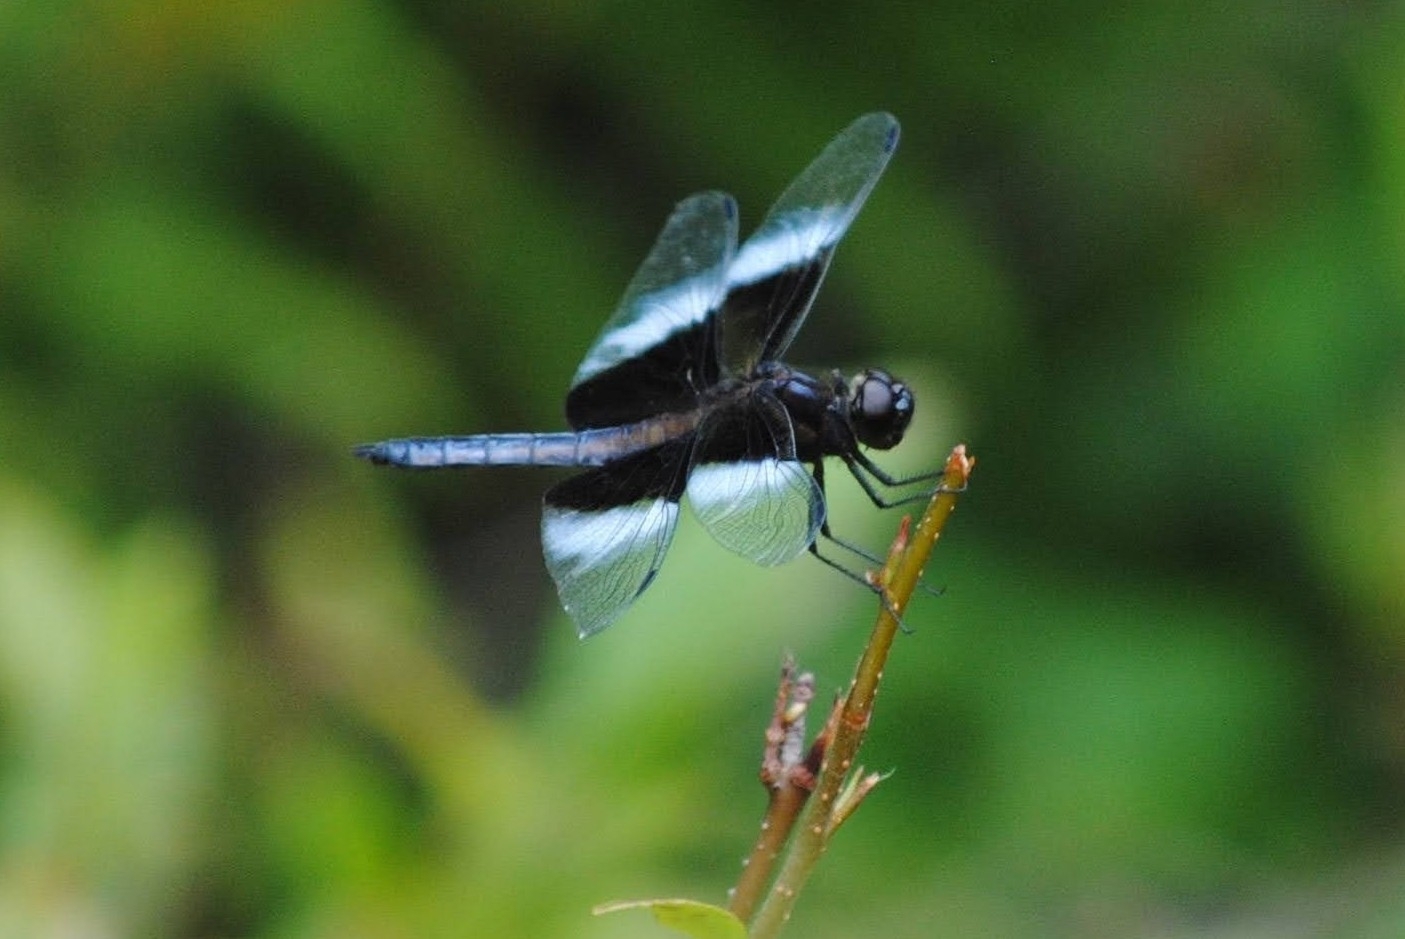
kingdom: Animalia
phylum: Arthropoda
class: Insecta
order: Odonata
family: Libellulidae
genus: Libellula
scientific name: Libellula luctuosa
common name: Widow skimmer
